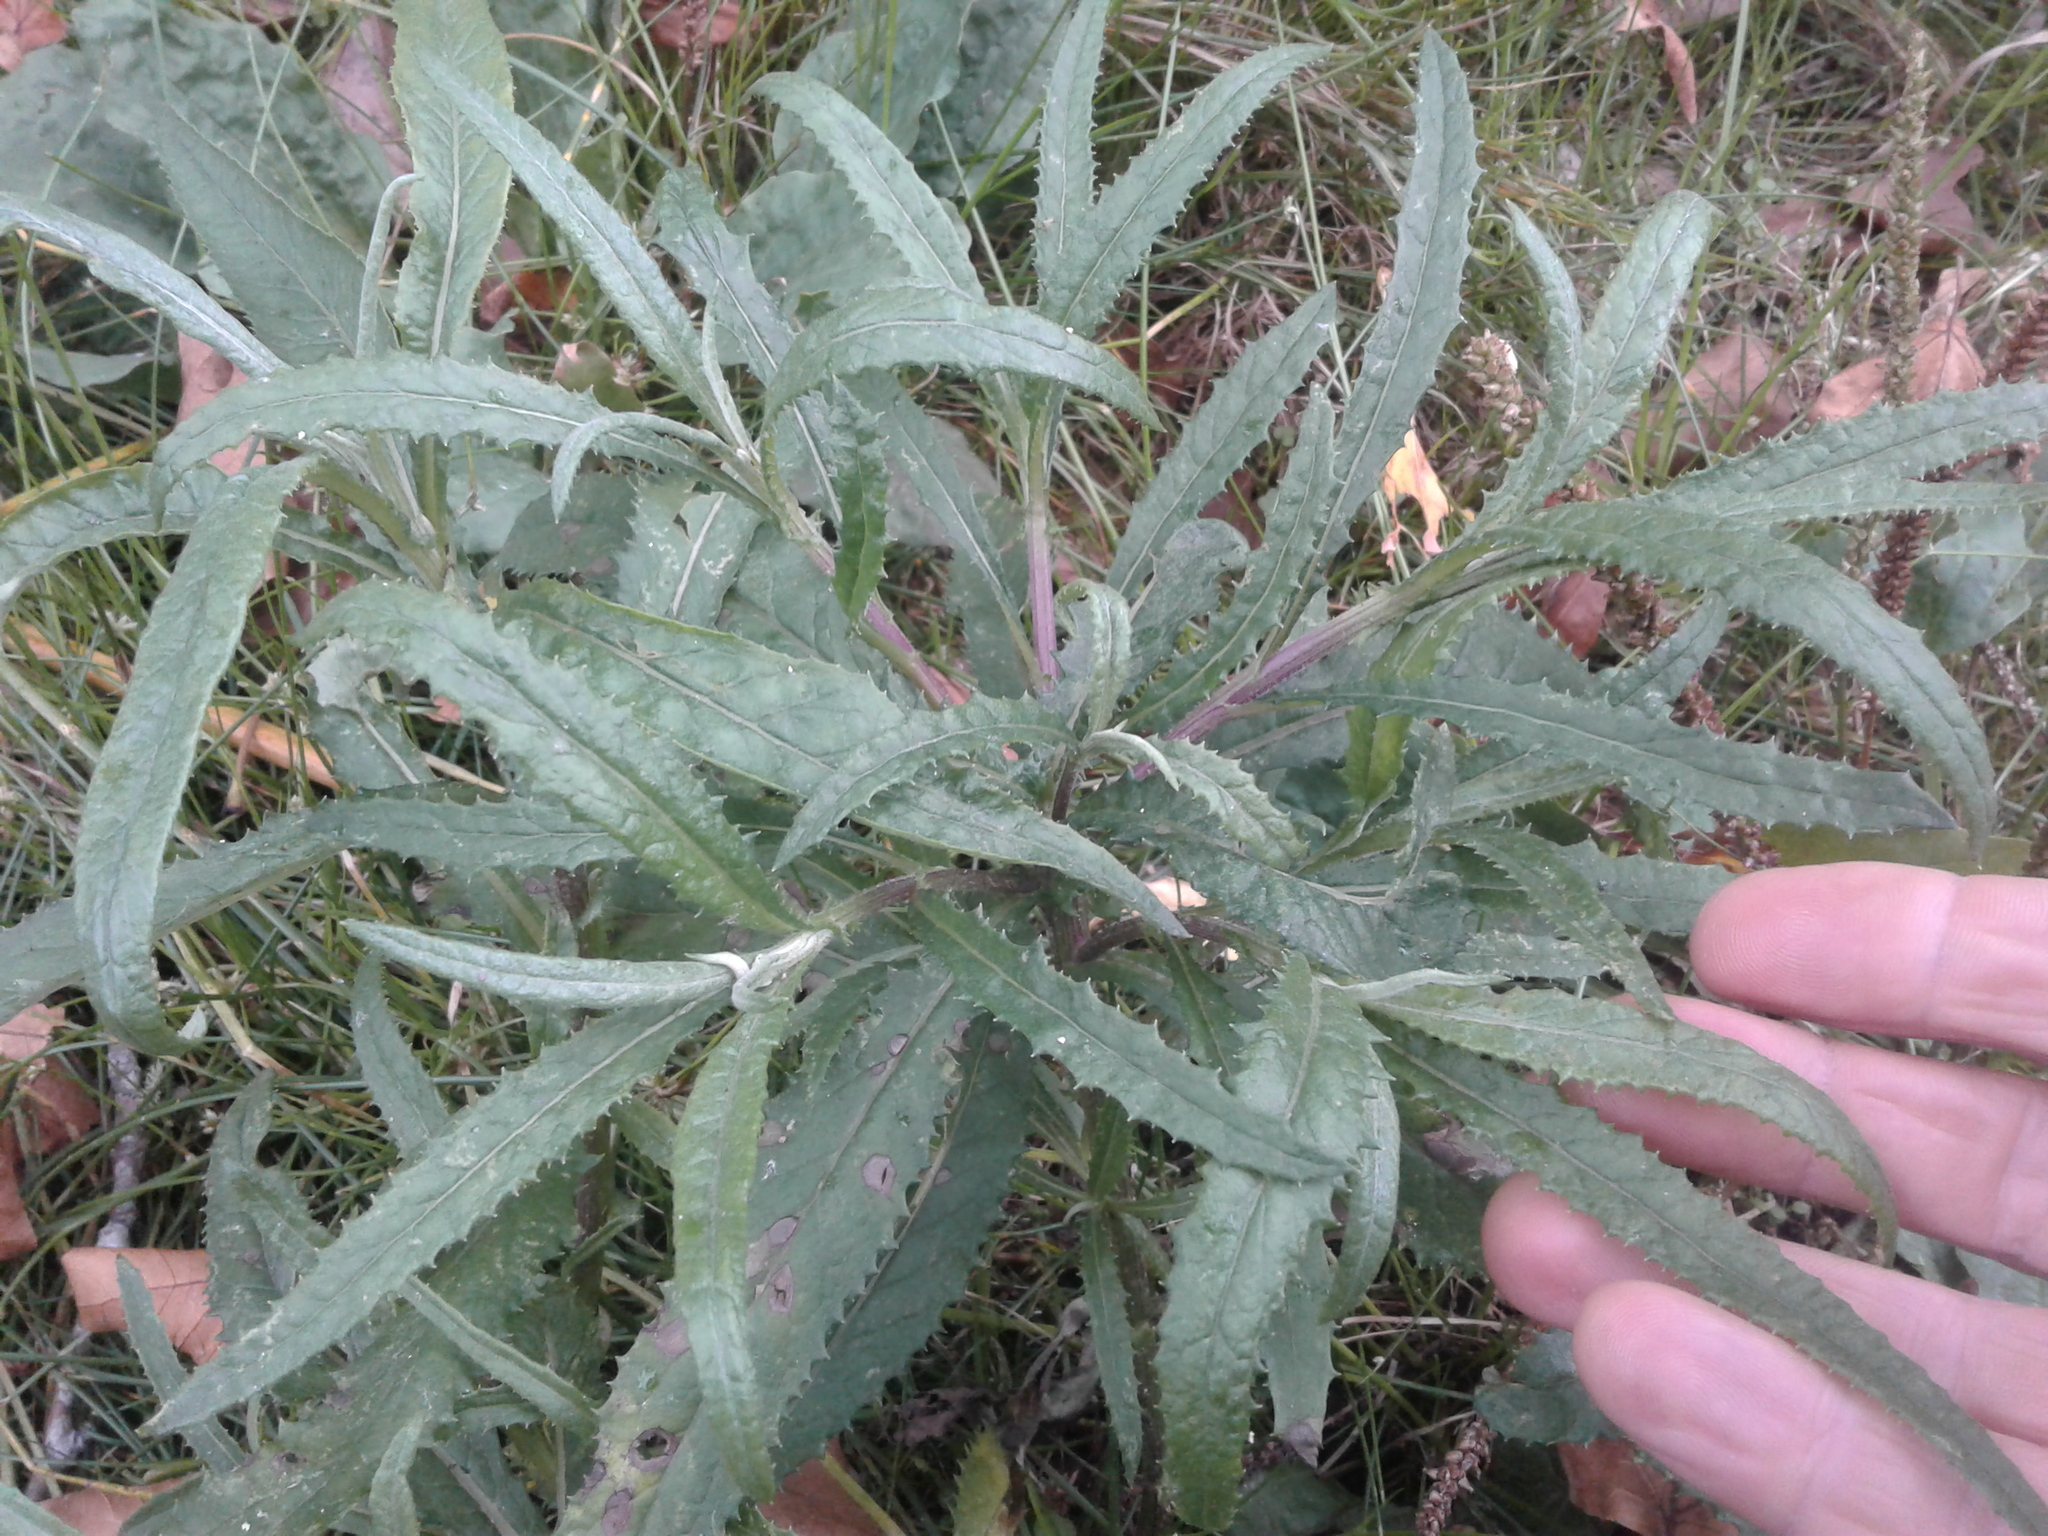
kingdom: Plantae
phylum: Tracheophyta
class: Magnoliopsida
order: Asterales
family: Asteraceae
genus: Senecio
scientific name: Senecio minimus
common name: Toothed fireweed
